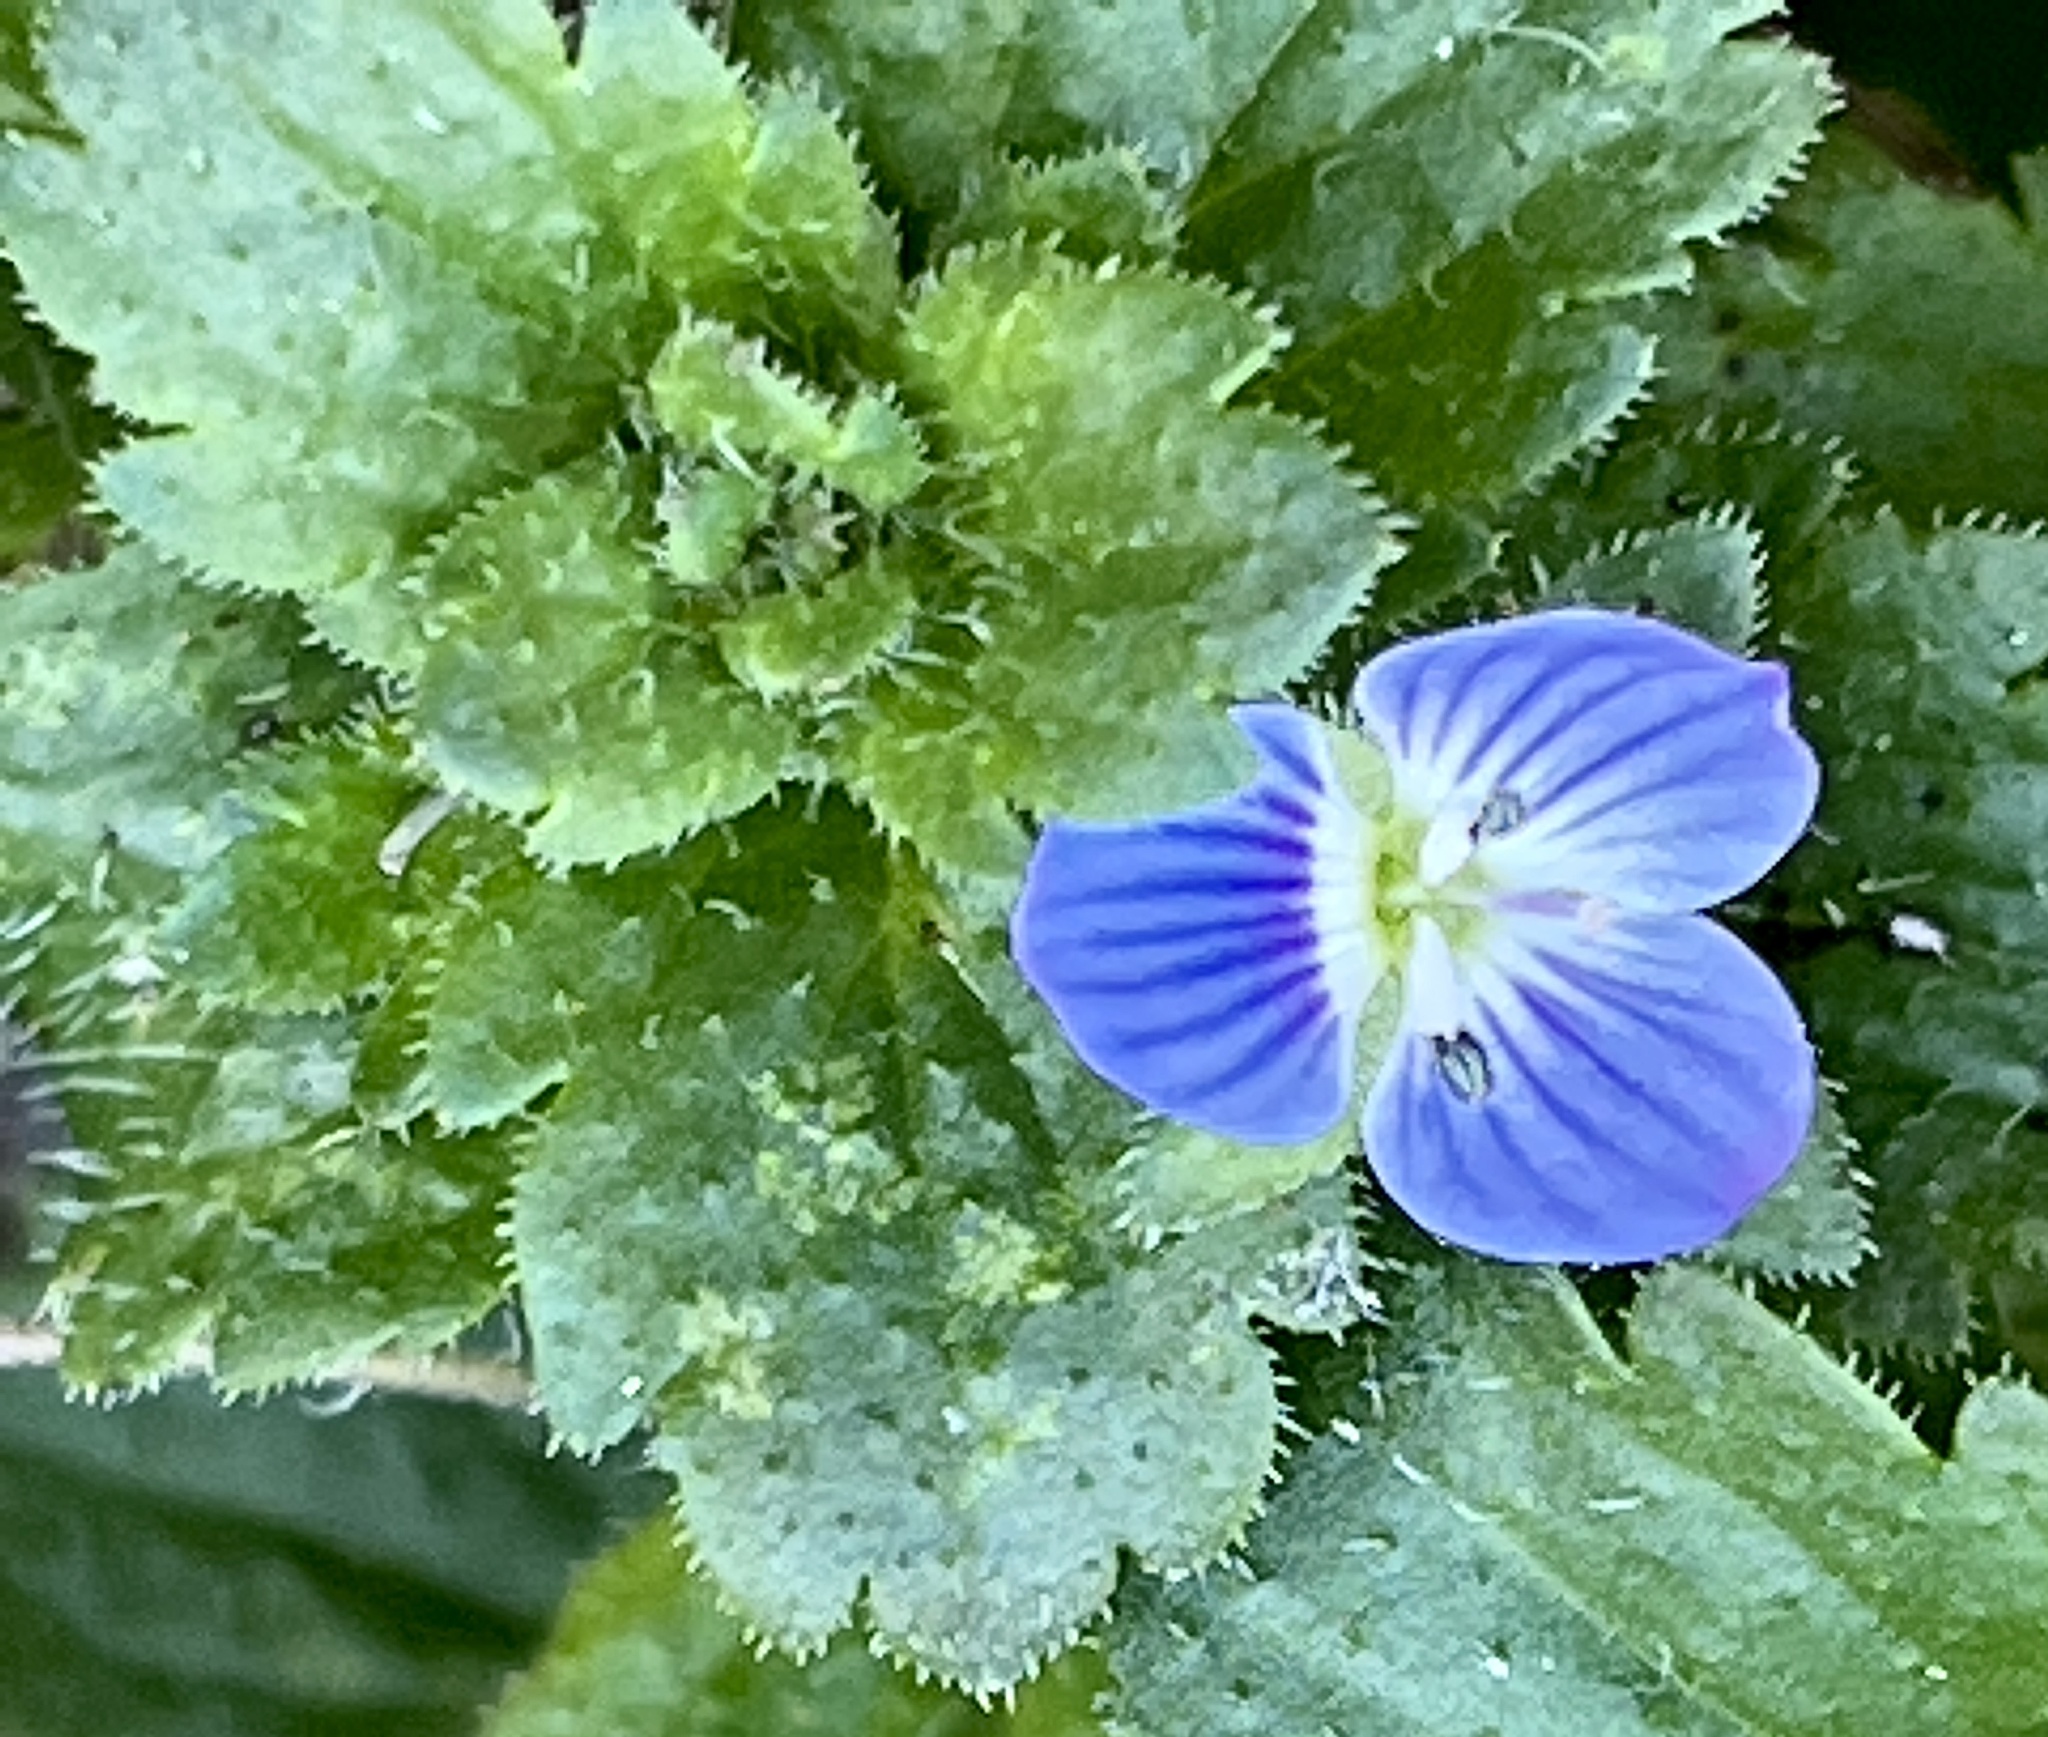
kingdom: Plantae
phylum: Tracheophyta
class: Magnoliopsida
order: Lamiales
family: Plantaginaceae
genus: Veronica
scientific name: Veronica persica
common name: Common field-speedwell
